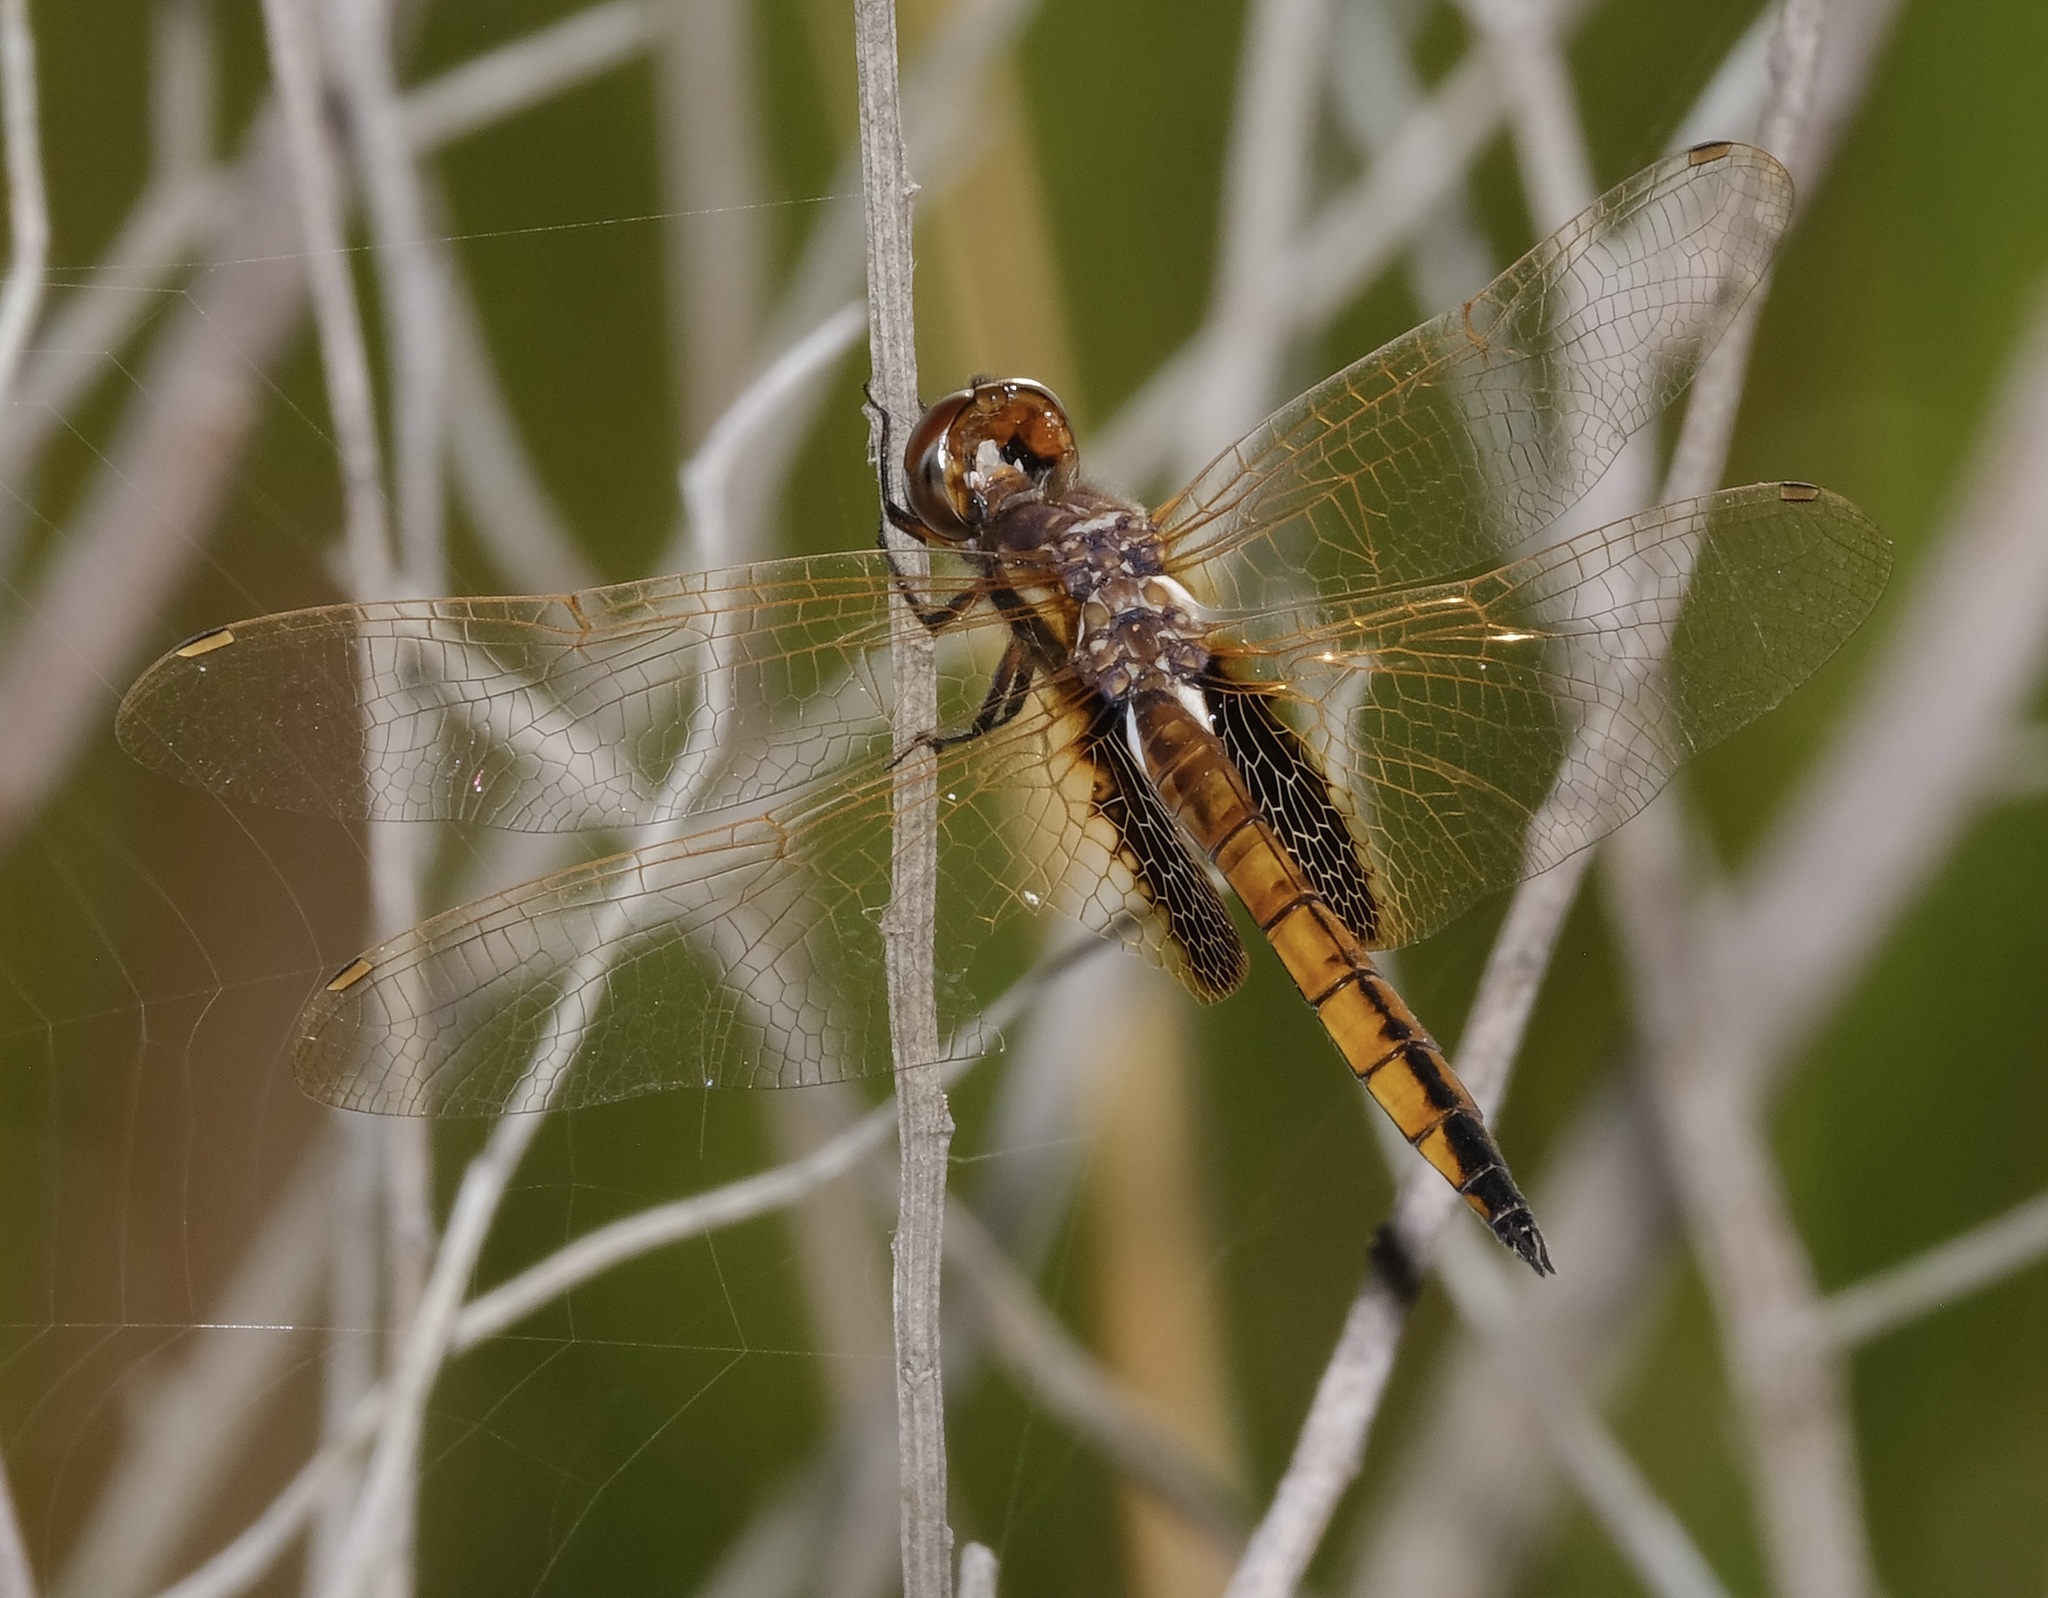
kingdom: Animalia
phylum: Arthropoda
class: Insecta
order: Odonata
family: Libellulidae
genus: Miathyria
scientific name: Miathyria marcella
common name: Hyacinth glider
